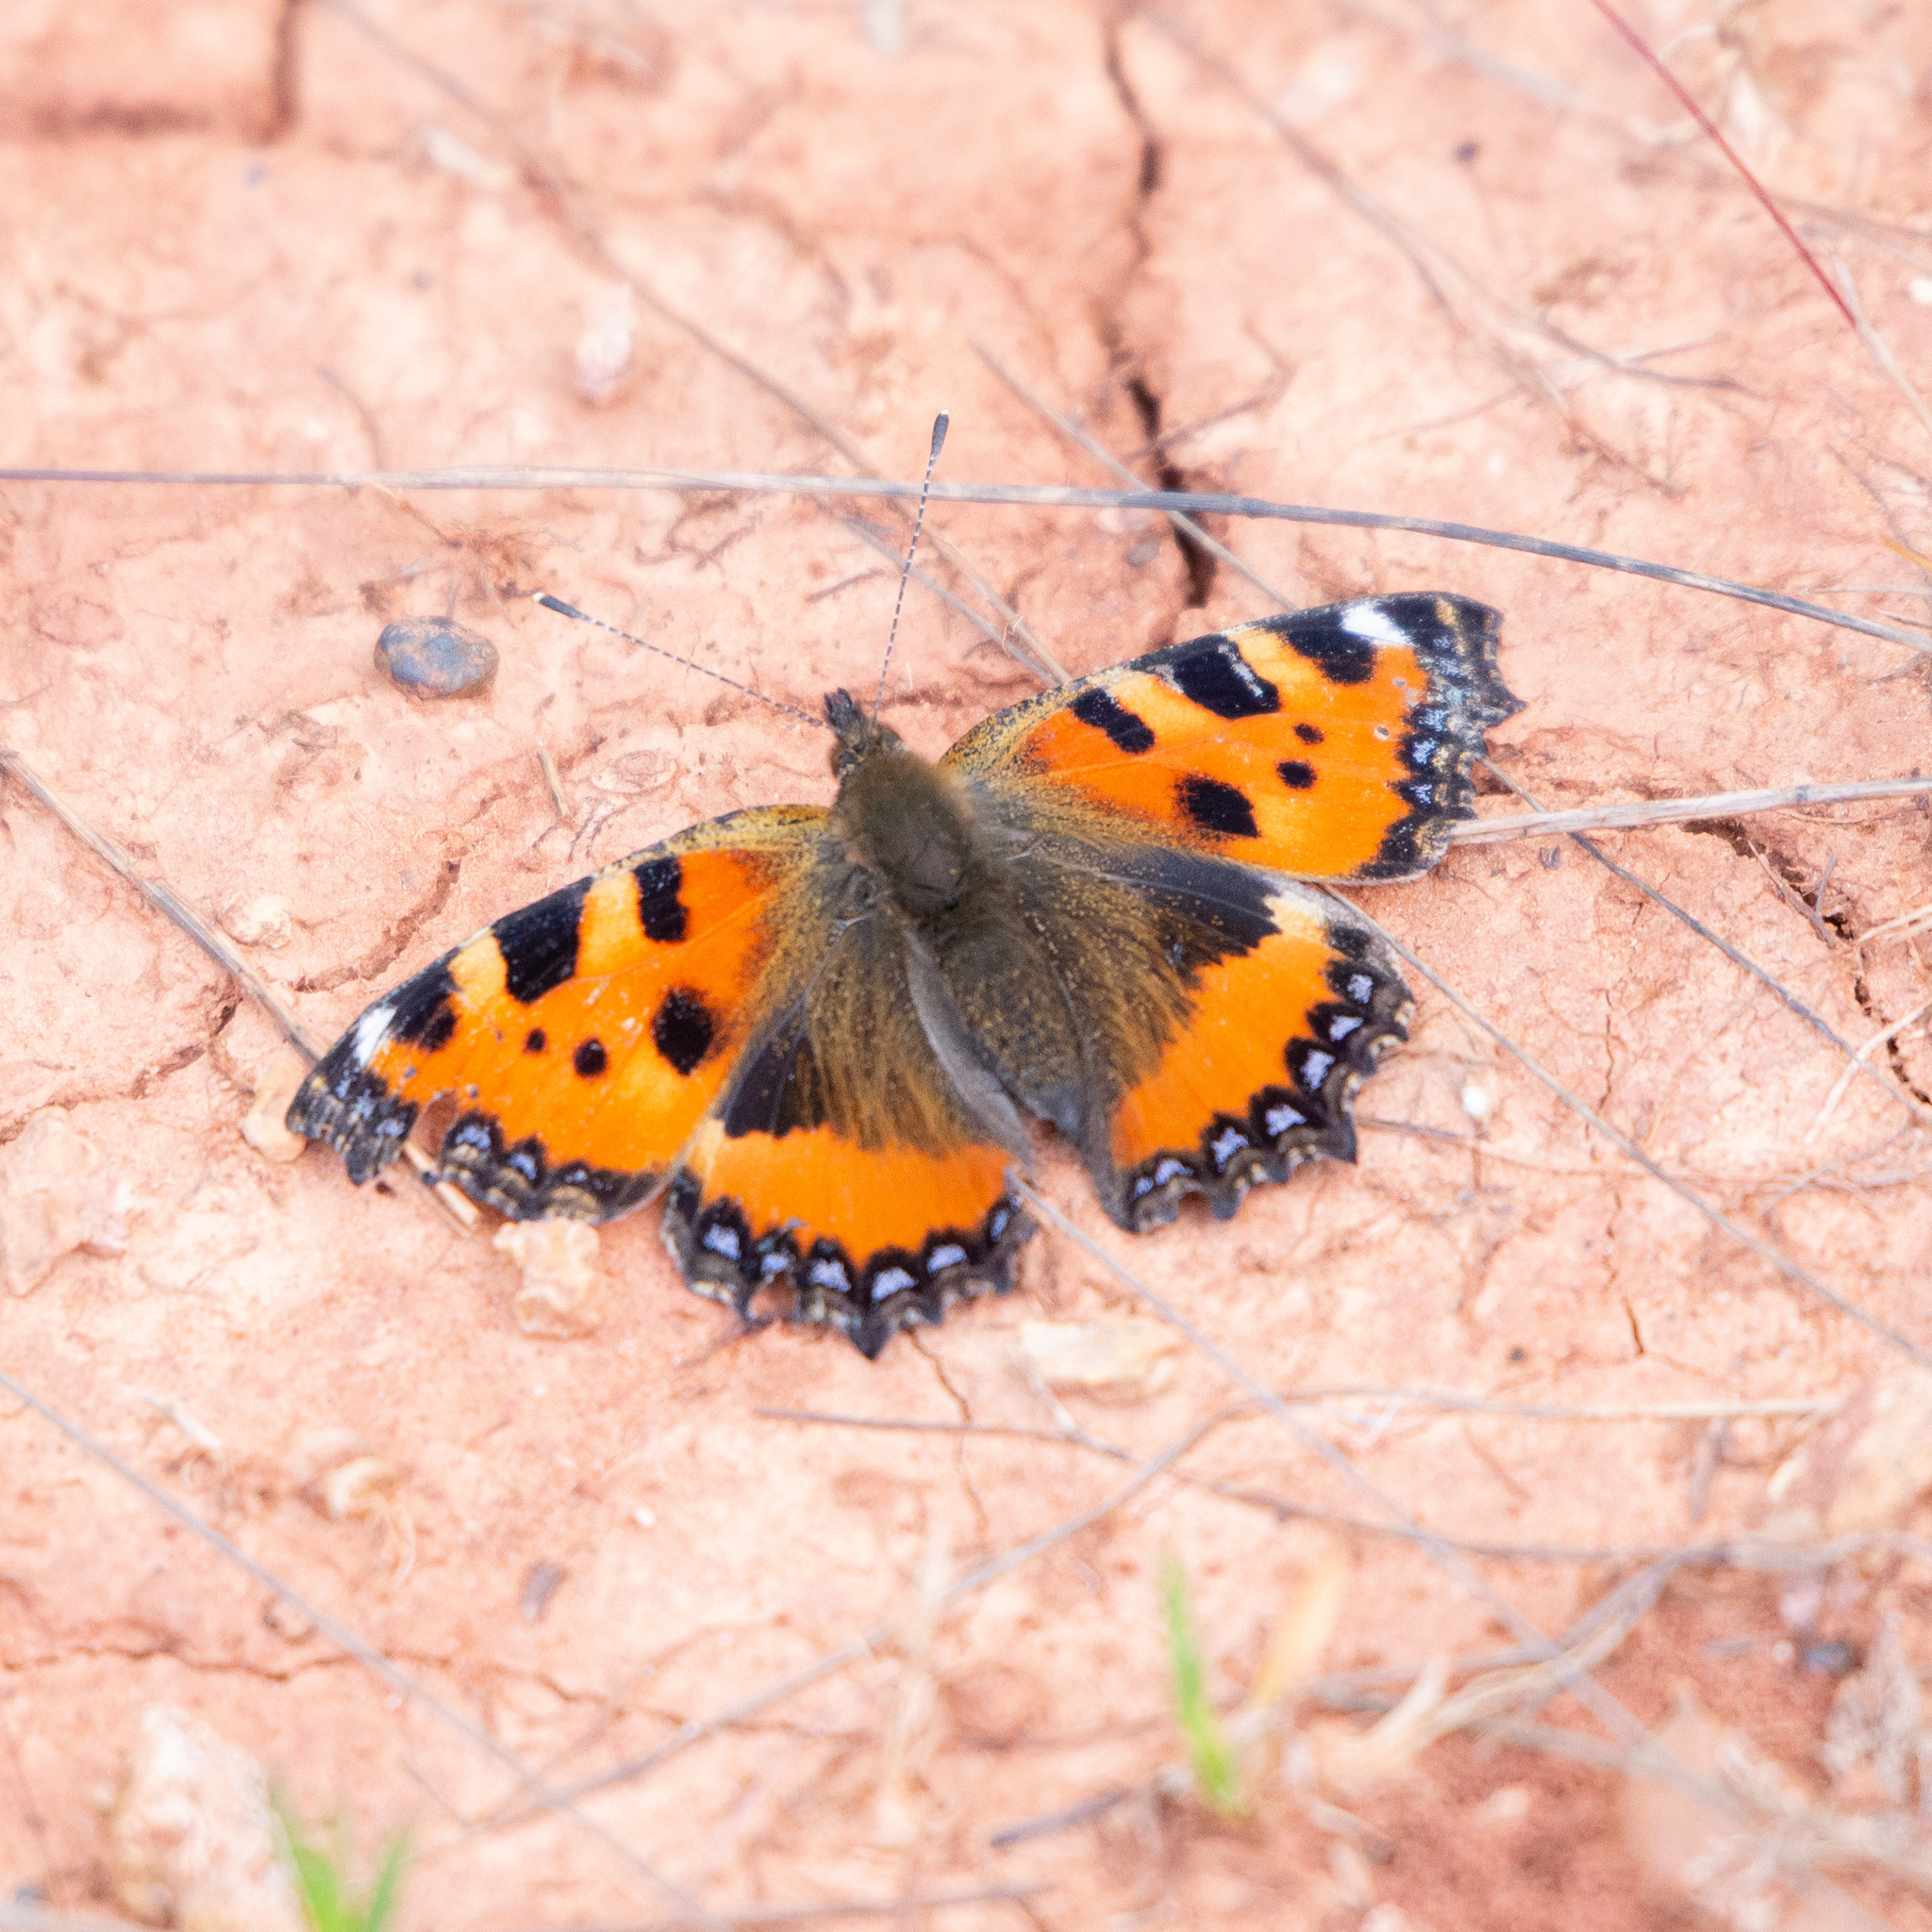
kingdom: Animalia
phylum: Arthropoda
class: Insecta
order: Lepidoptera
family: Nymphalidae
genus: Aglais
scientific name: Aglais urticae
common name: Small tortoiseshell
